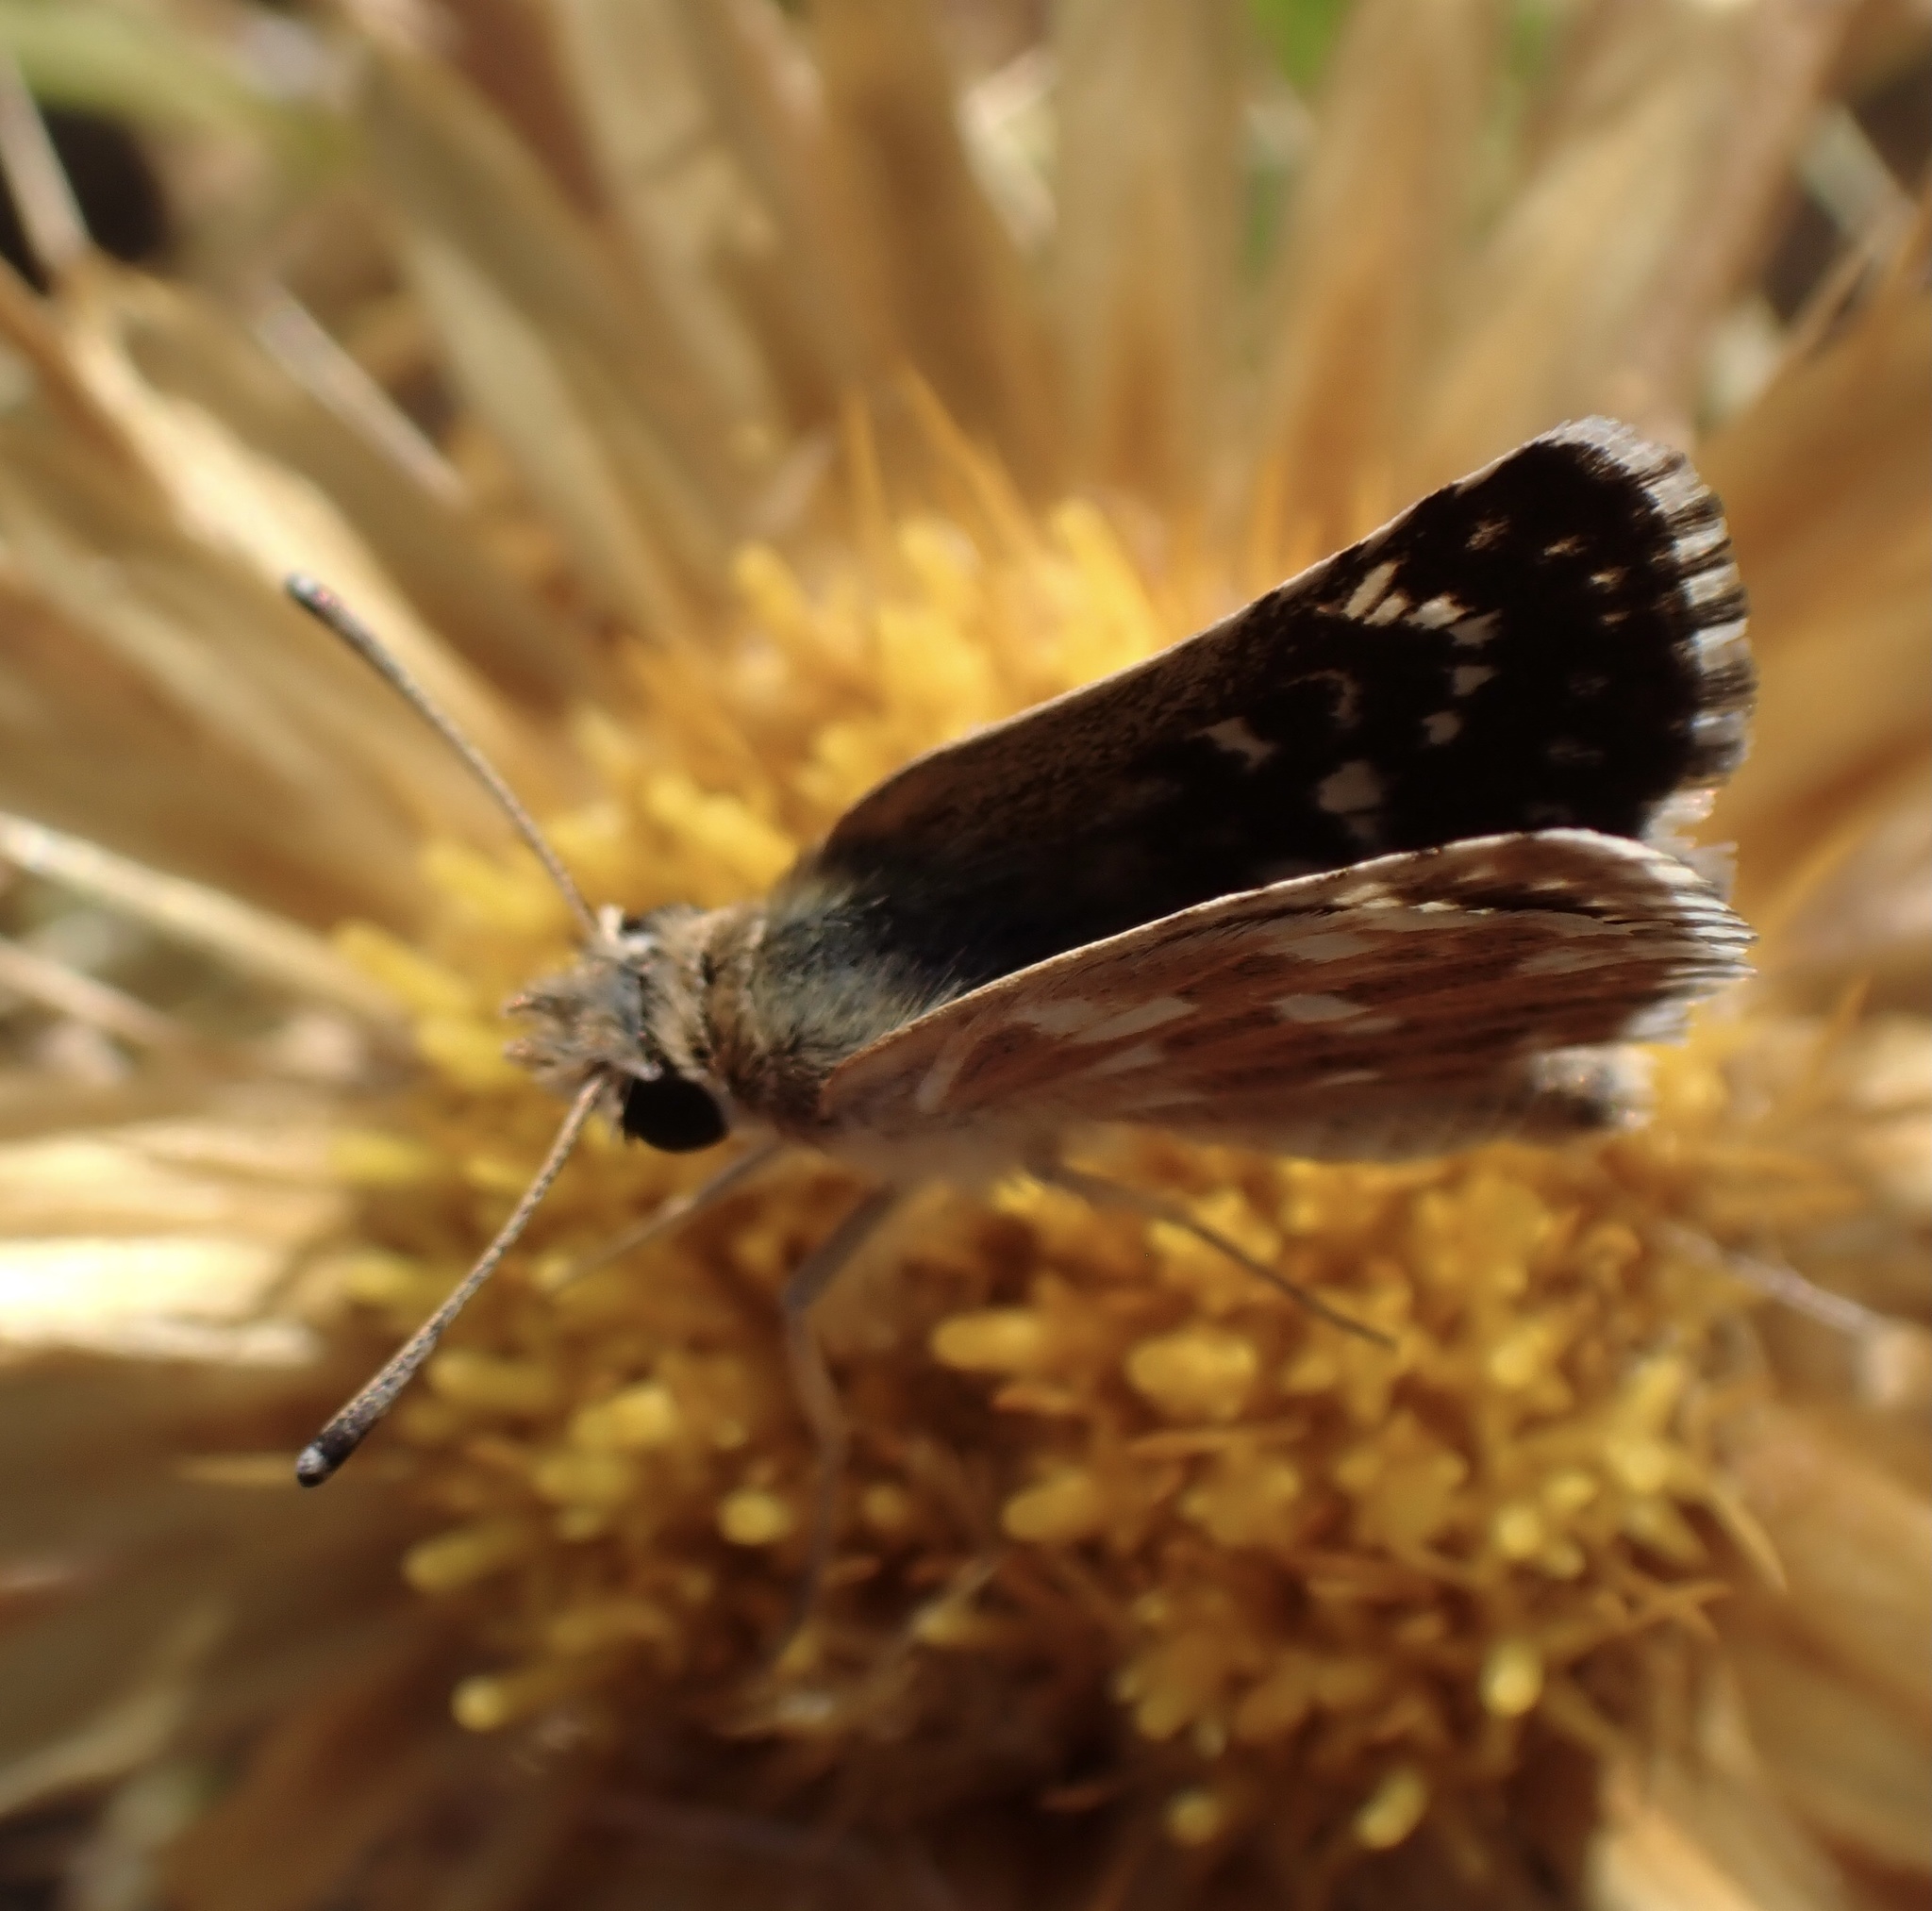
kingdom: Animalia
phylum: Arthropoda
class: Insecta
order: Lepidoptera
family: Hesperiidae
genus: Spialia
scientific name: Spialia sertorius
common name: Red underwing skipper
